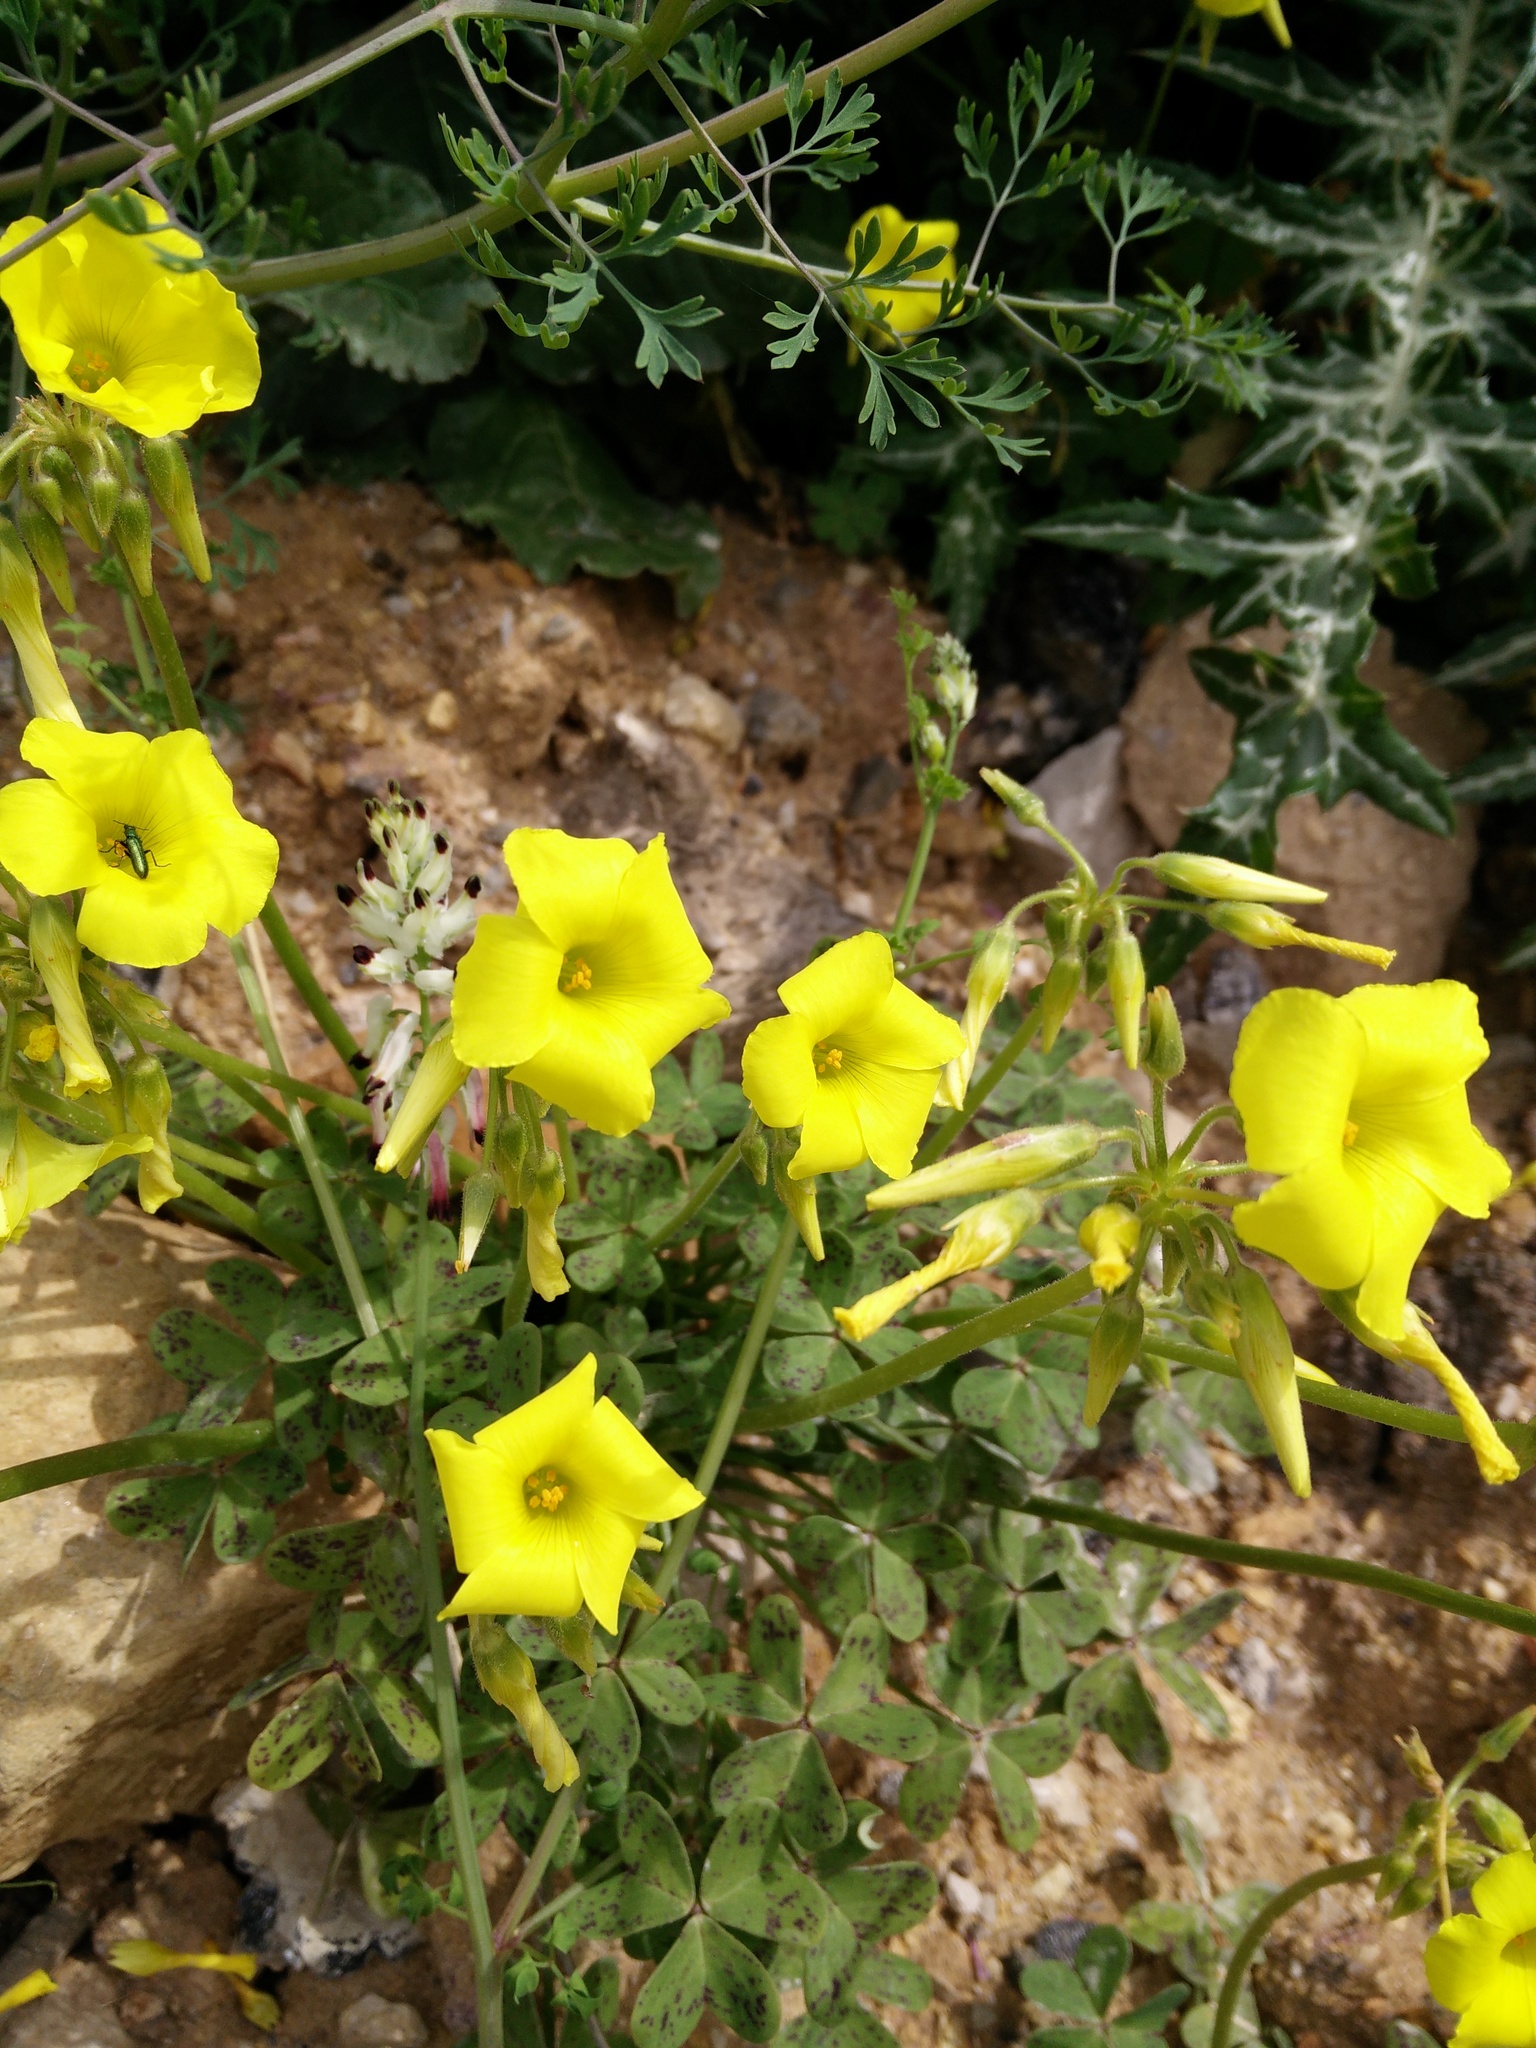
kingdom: Plantae
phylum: Tracheophyta
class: Magnoliopsida
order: Oxalidales
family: Oxalidaceae
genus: Oxalis
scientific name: Oxalis pes-caprae
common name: Bermuda-buttercup
